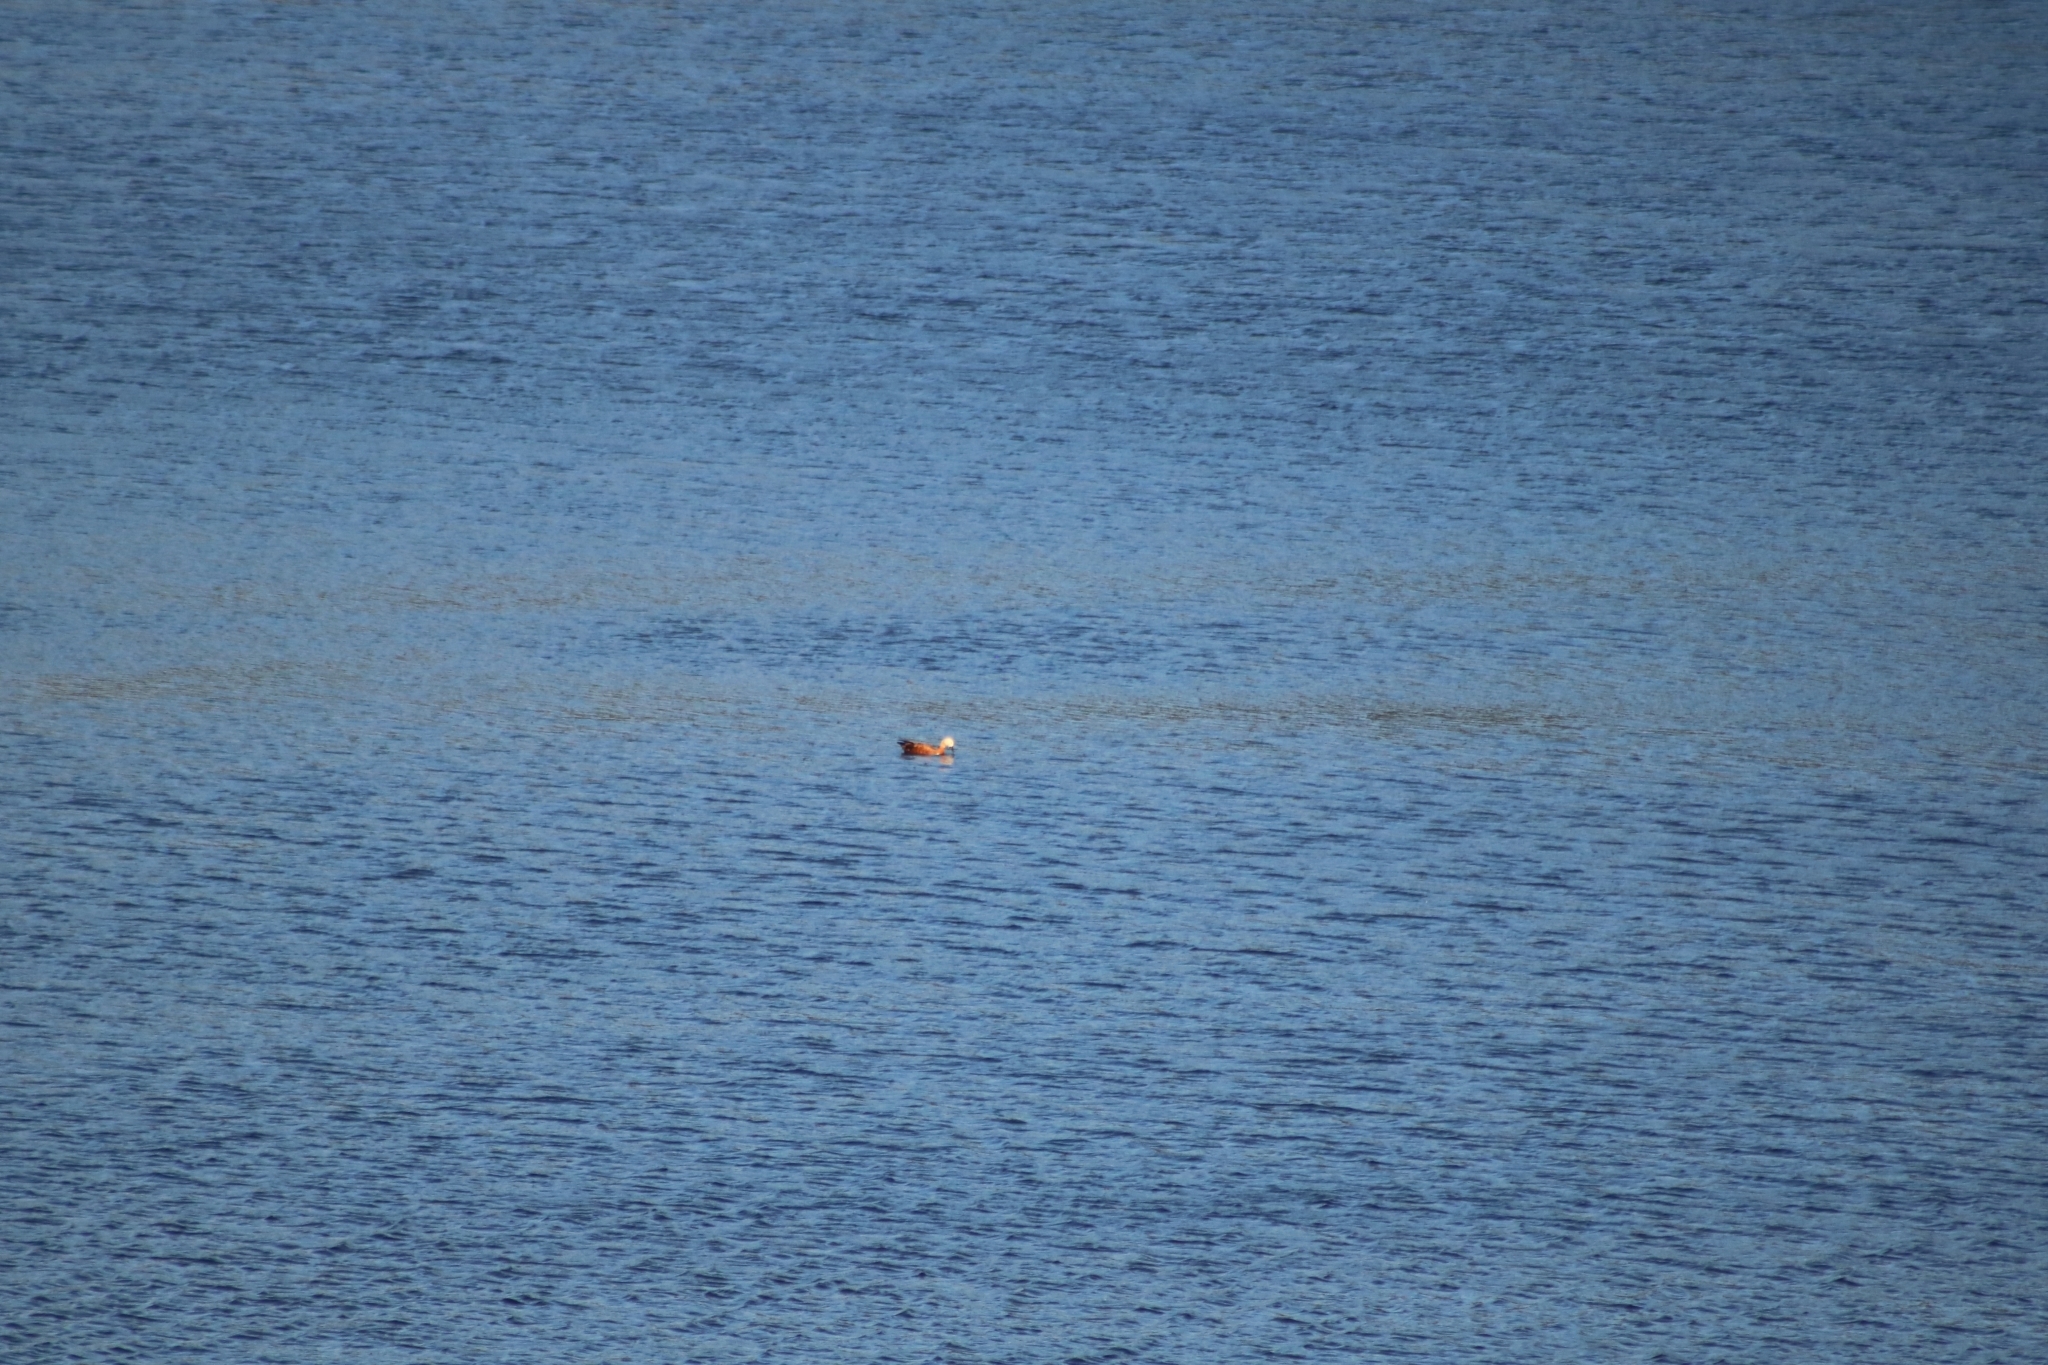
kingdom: Animalia
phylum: Chordata
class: Aves
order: Anseriformes
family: Anatidae
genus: Tadorna
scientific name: Tadorna ferruginea
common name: Ruddy shelduck
